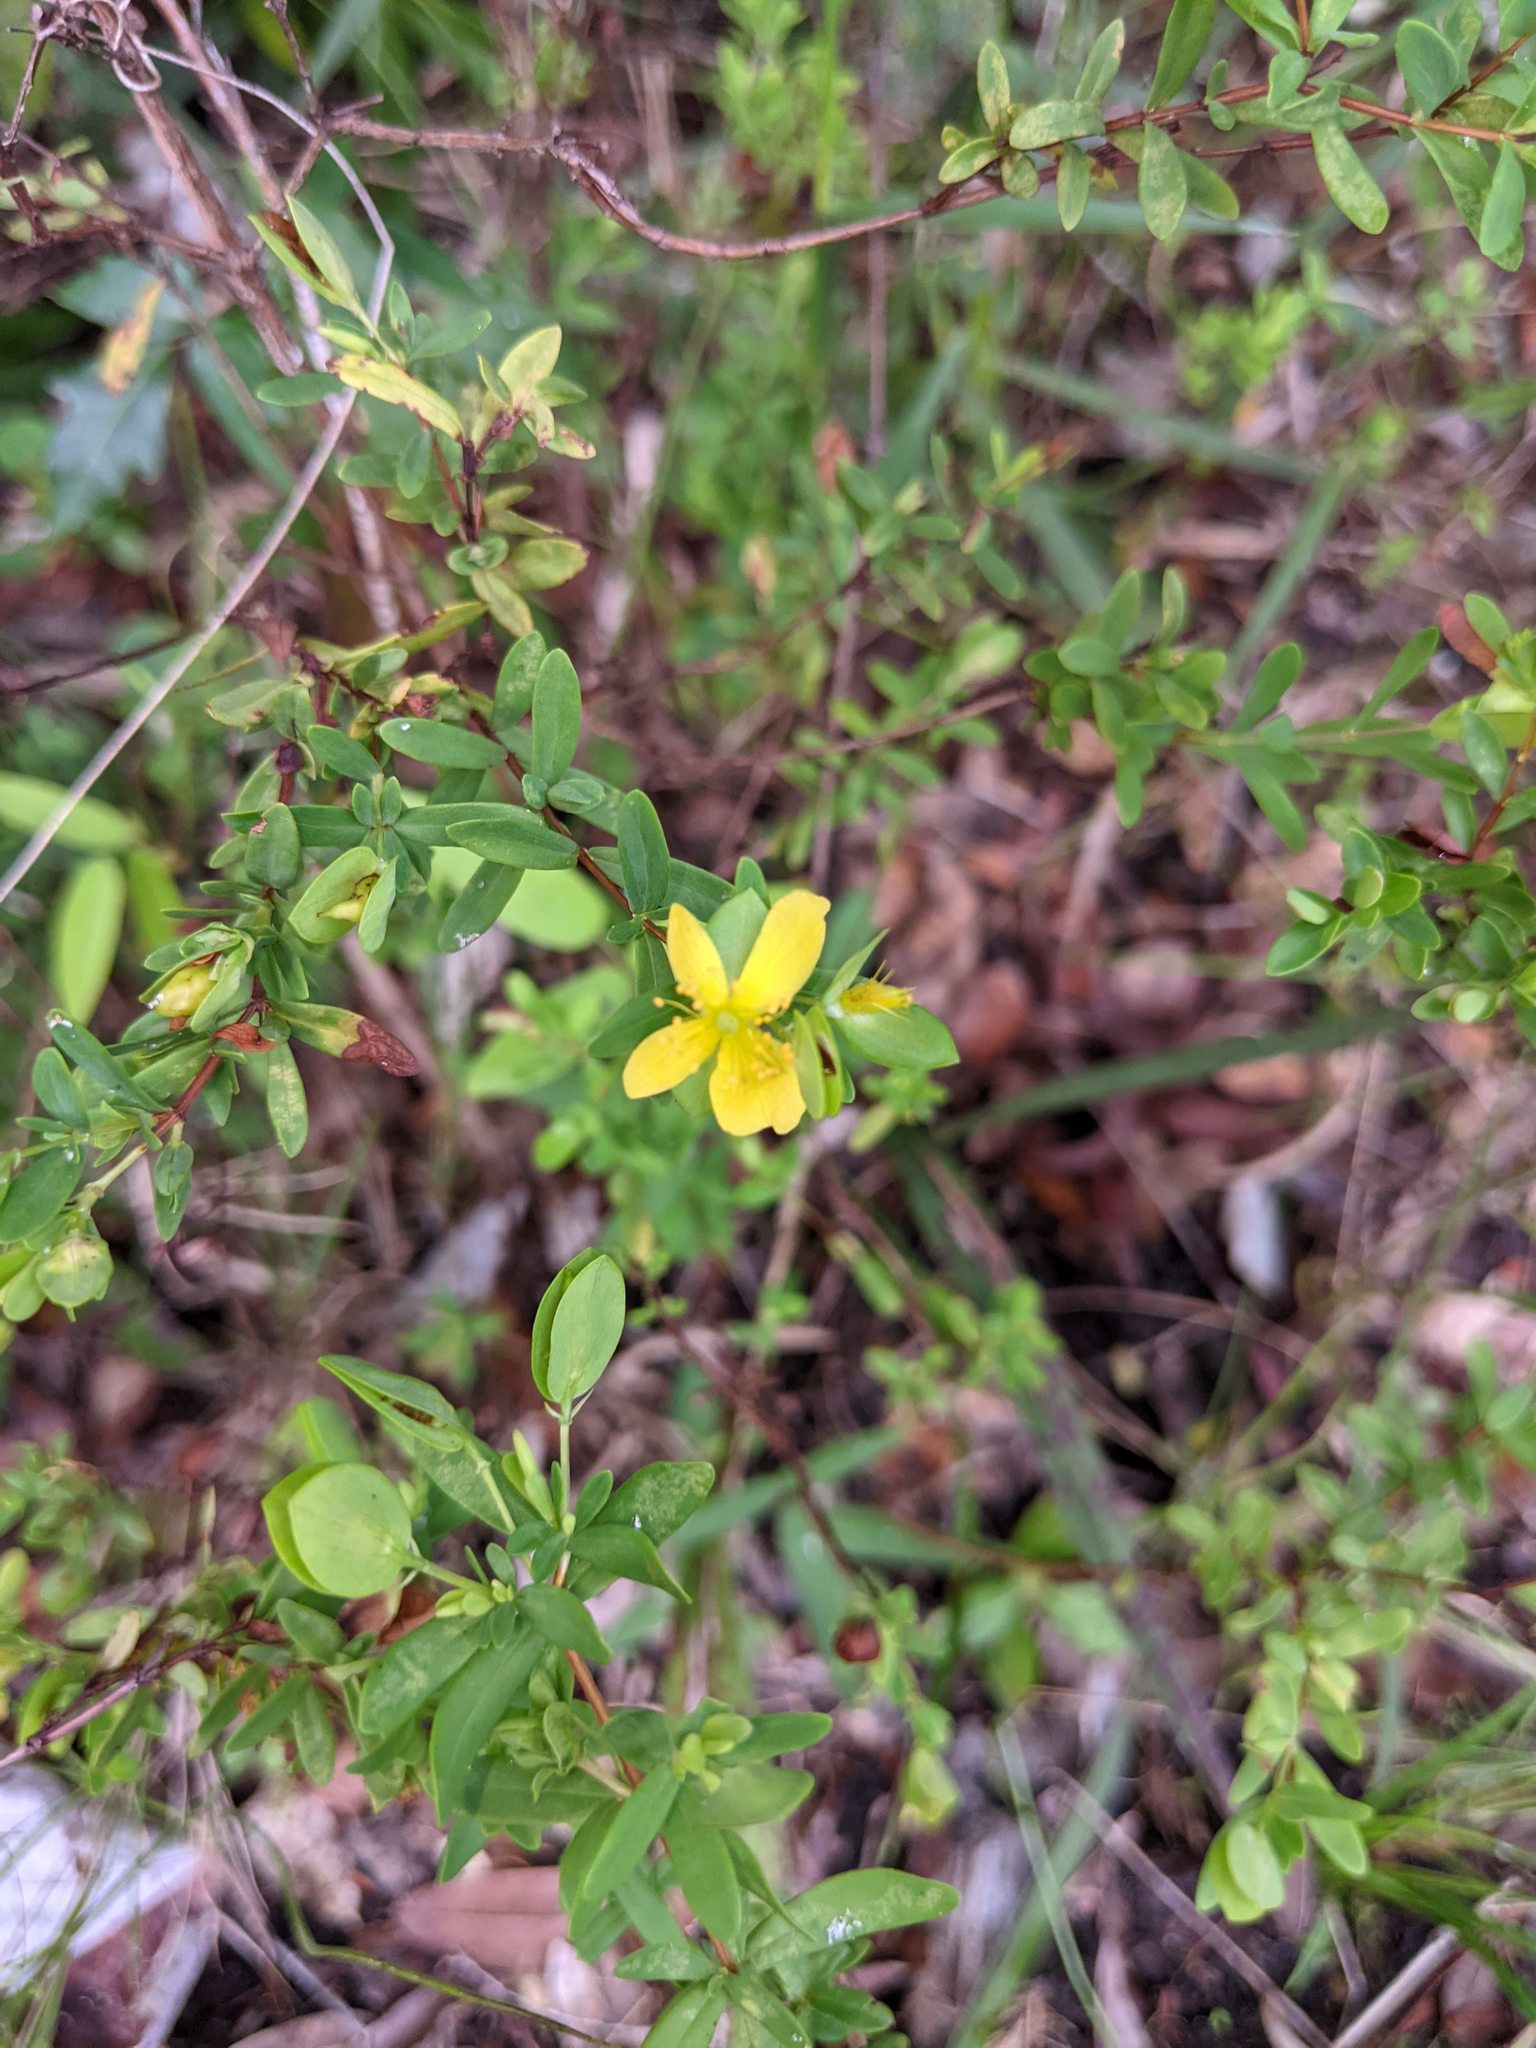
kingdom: Plantae
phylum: Tracheophyta
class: Magnoliopsida
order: Malpighiales
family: Hypericaceae
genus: Hypericum
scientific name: Hypericum hypericoides
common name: St. andrew's cross
